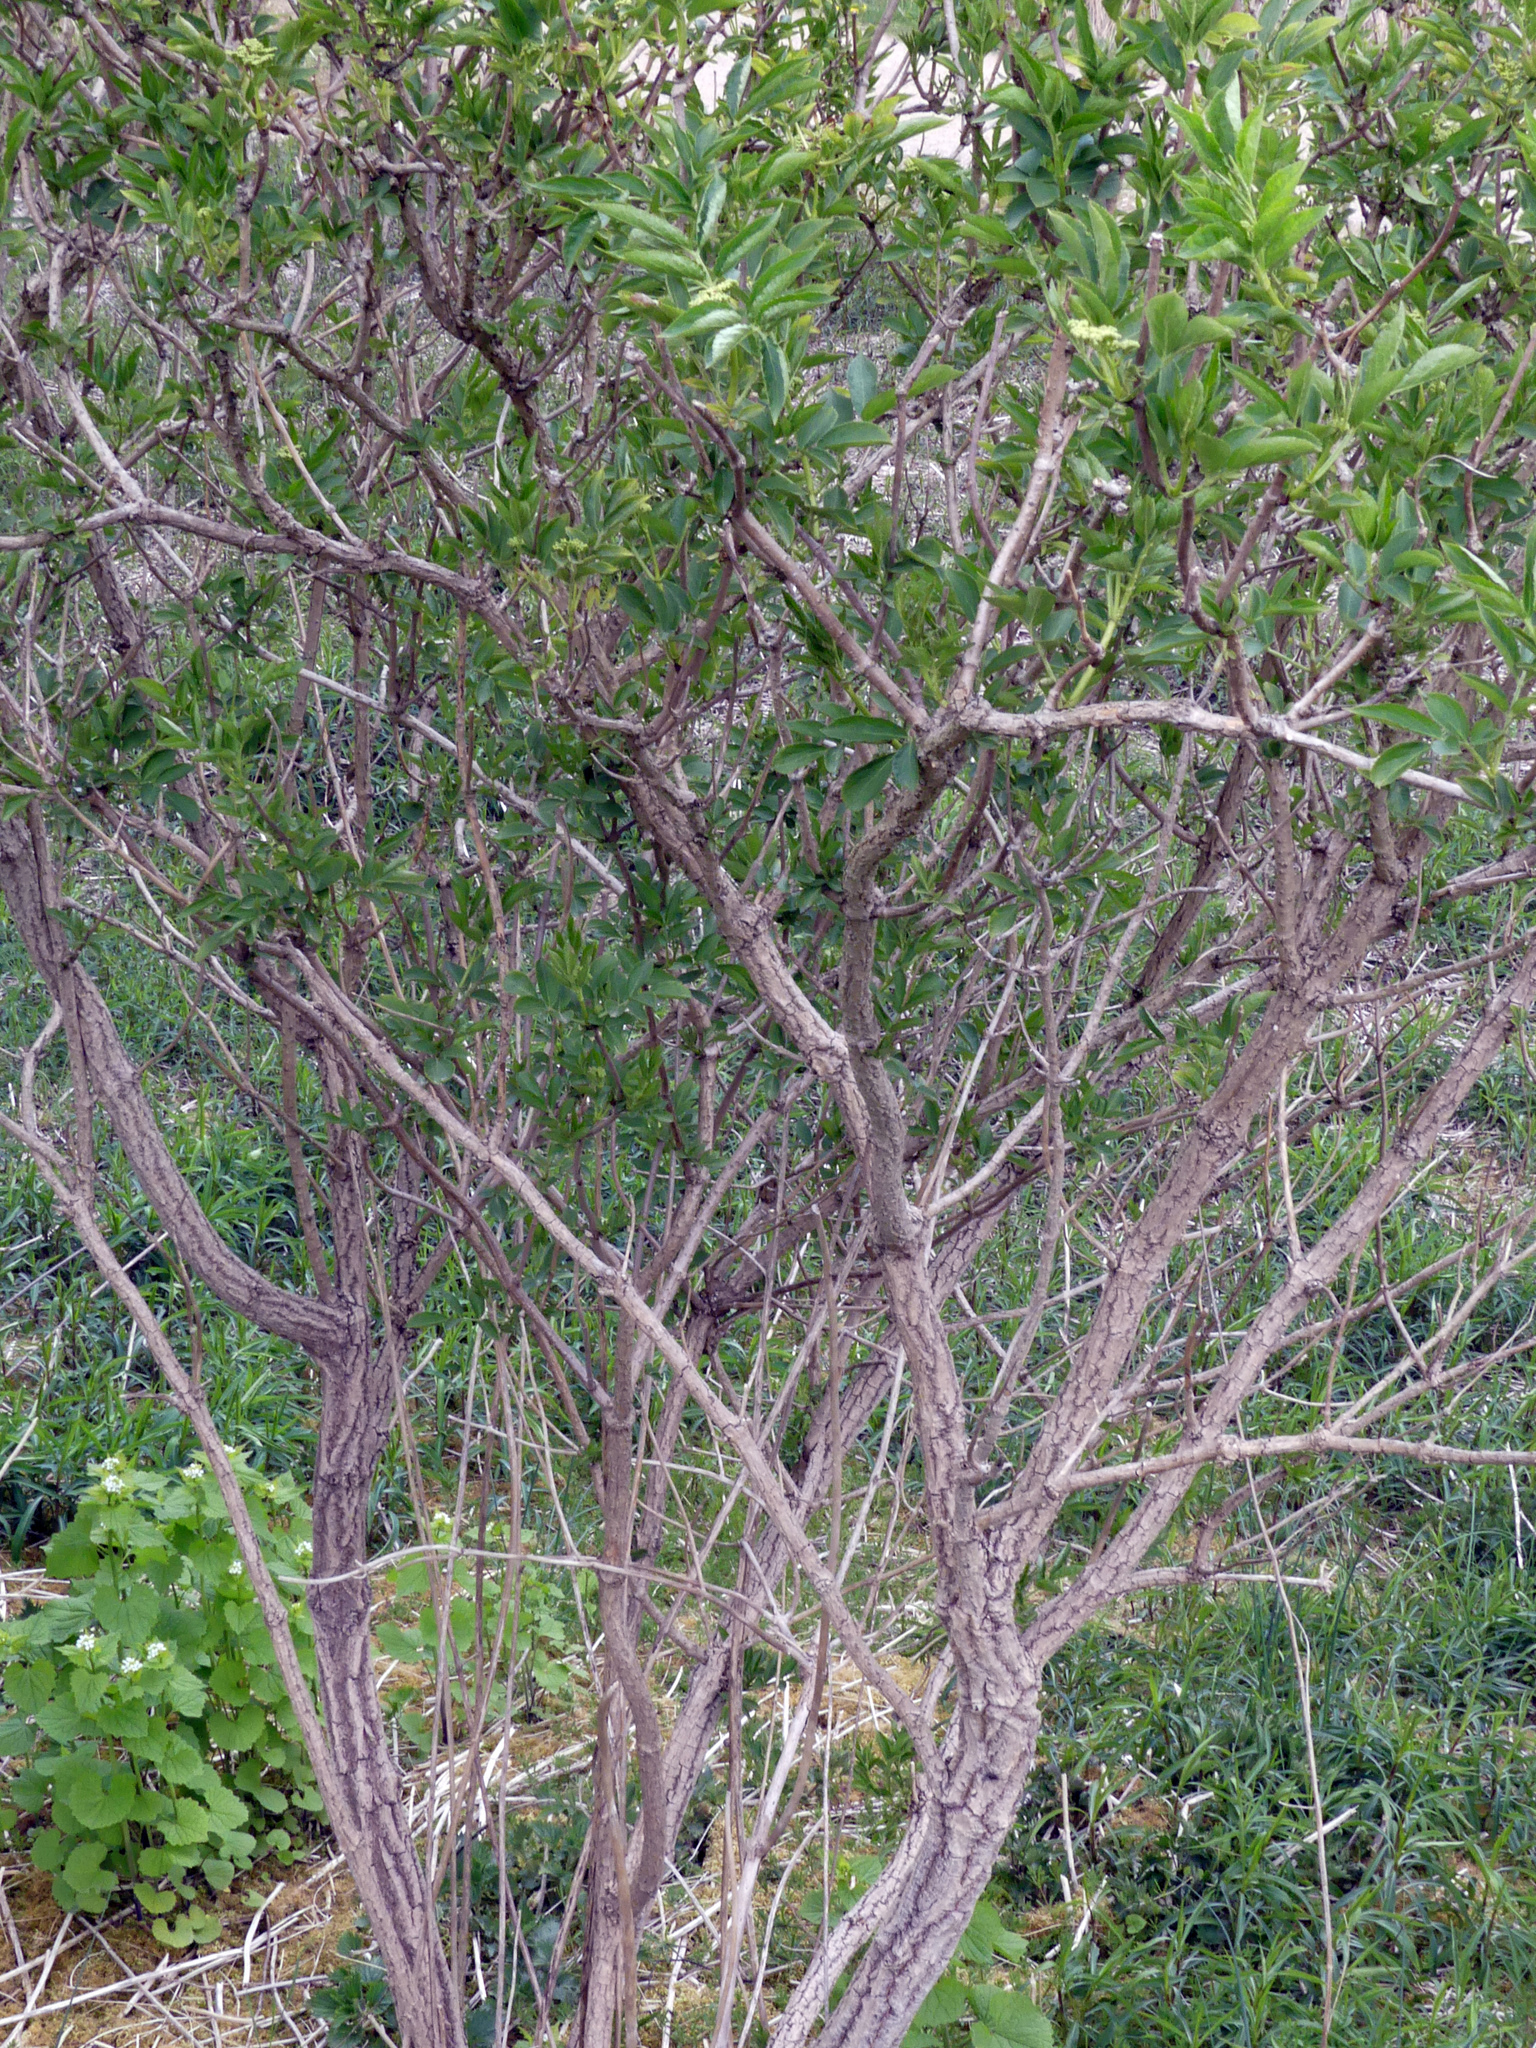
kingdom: Plantae
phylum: Tracheophyta
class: Magnoliopsida
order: Dipsacales
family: Viburnaceae
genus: Sambucus
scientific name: Sambucus nigra
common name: Elder
